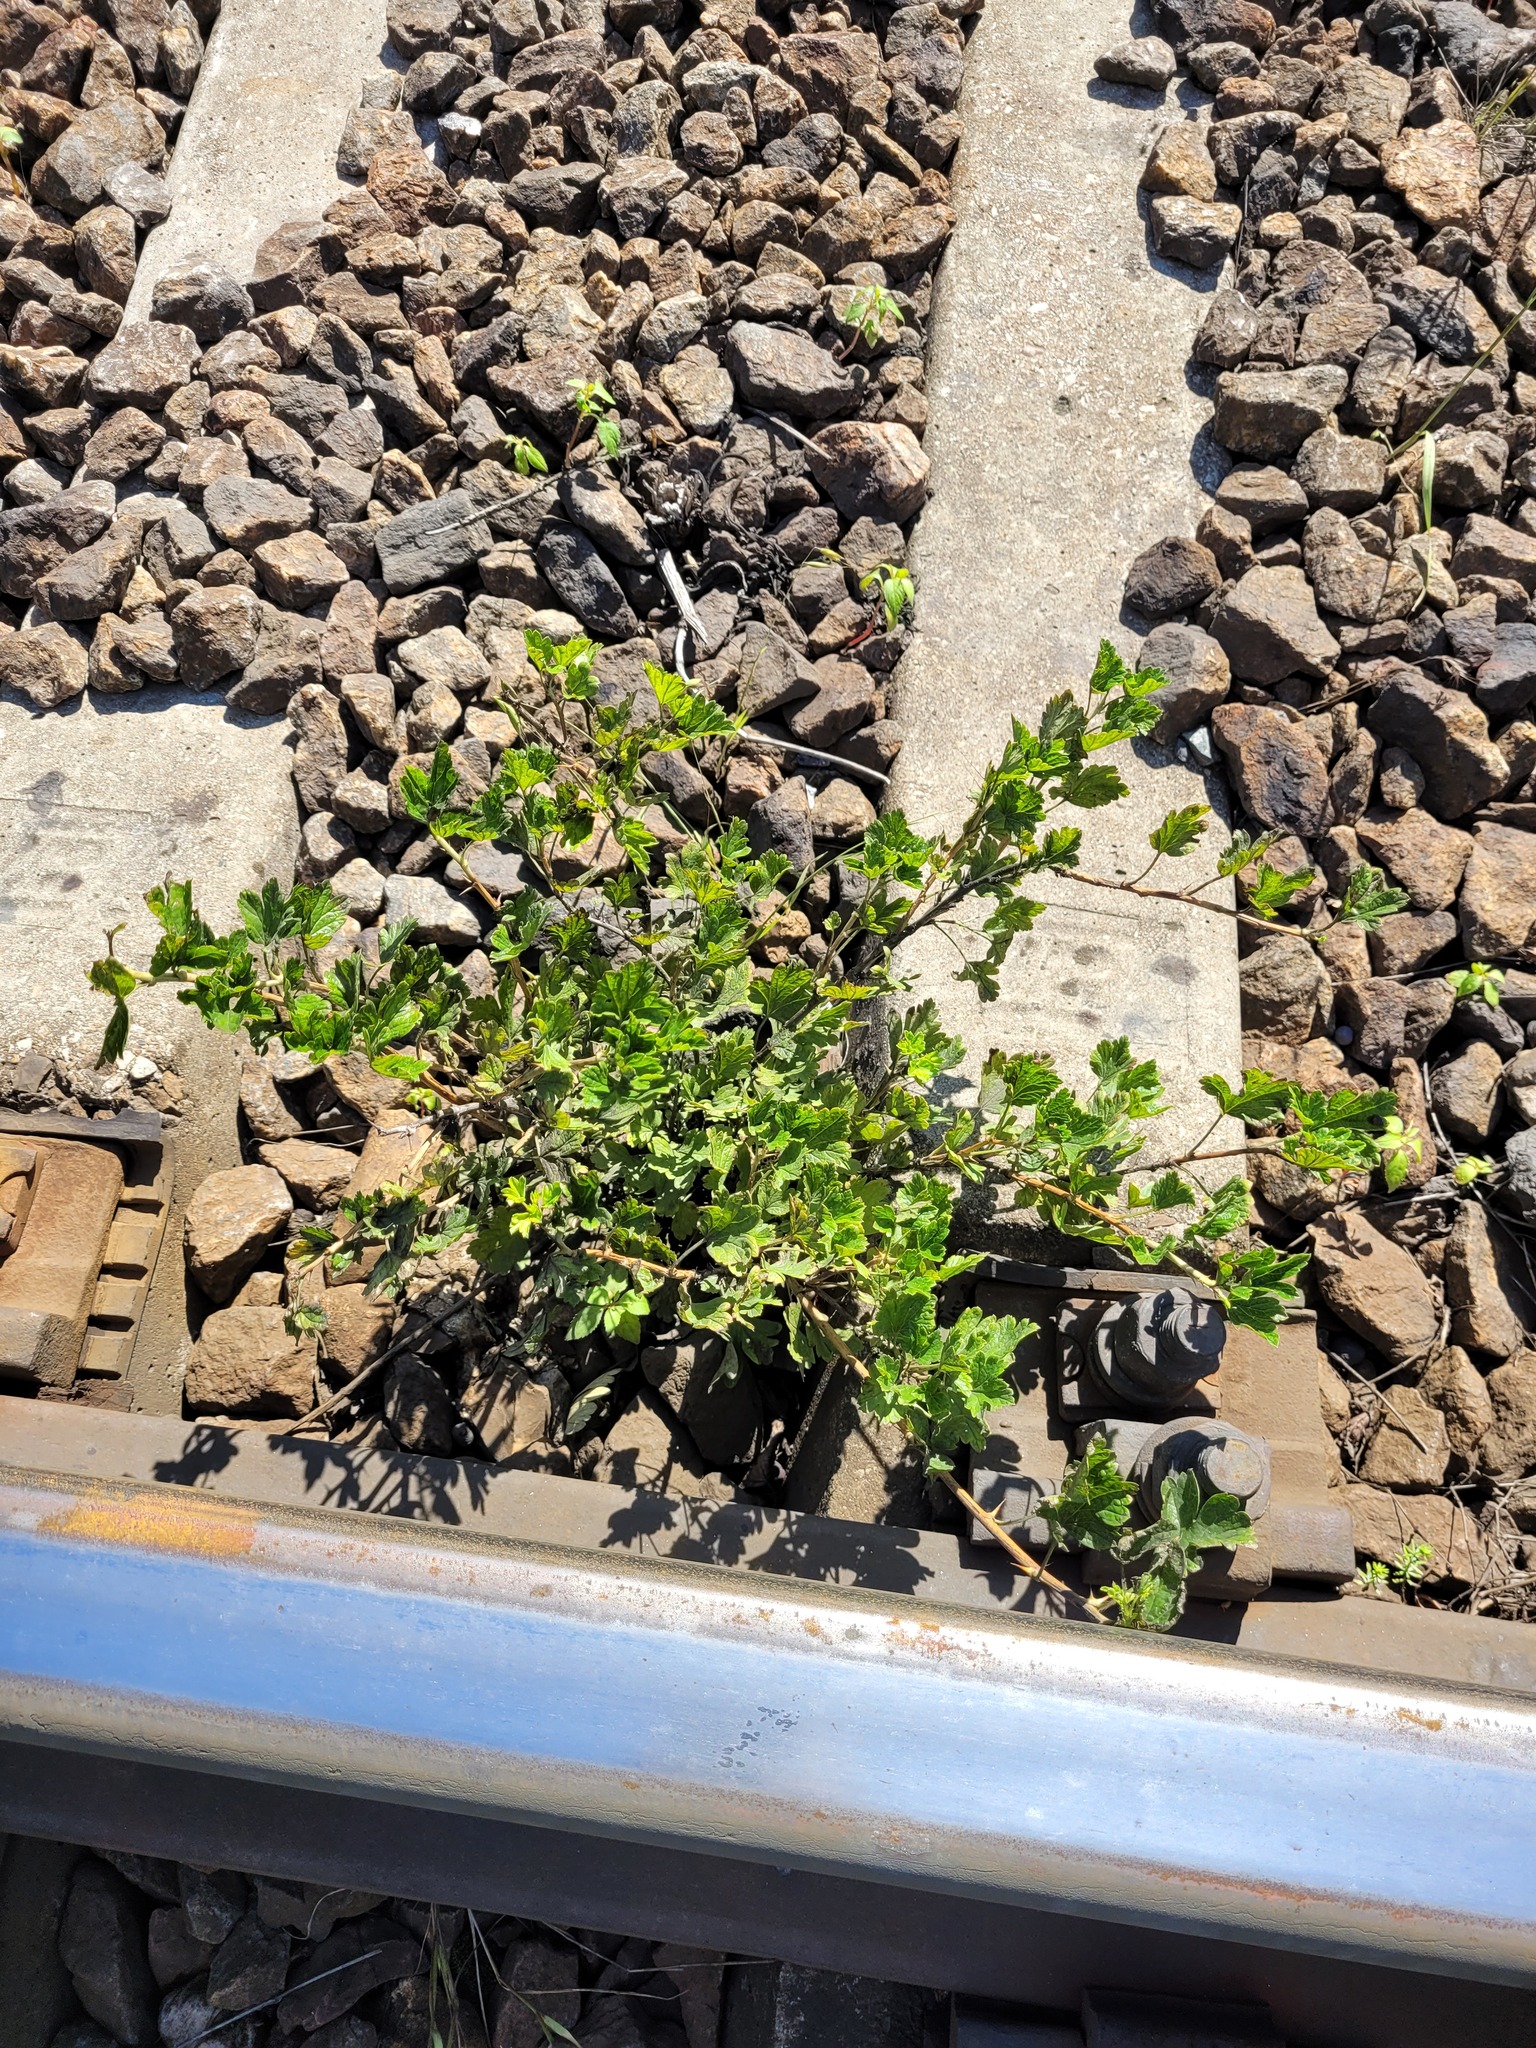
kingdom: Plantae
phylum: Tracheophyta
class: Magnoliopsida
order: Saxifragales
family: Grossulariaceae
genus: Ribes
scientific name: Ribes uva-crispa
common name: Gooseberry
